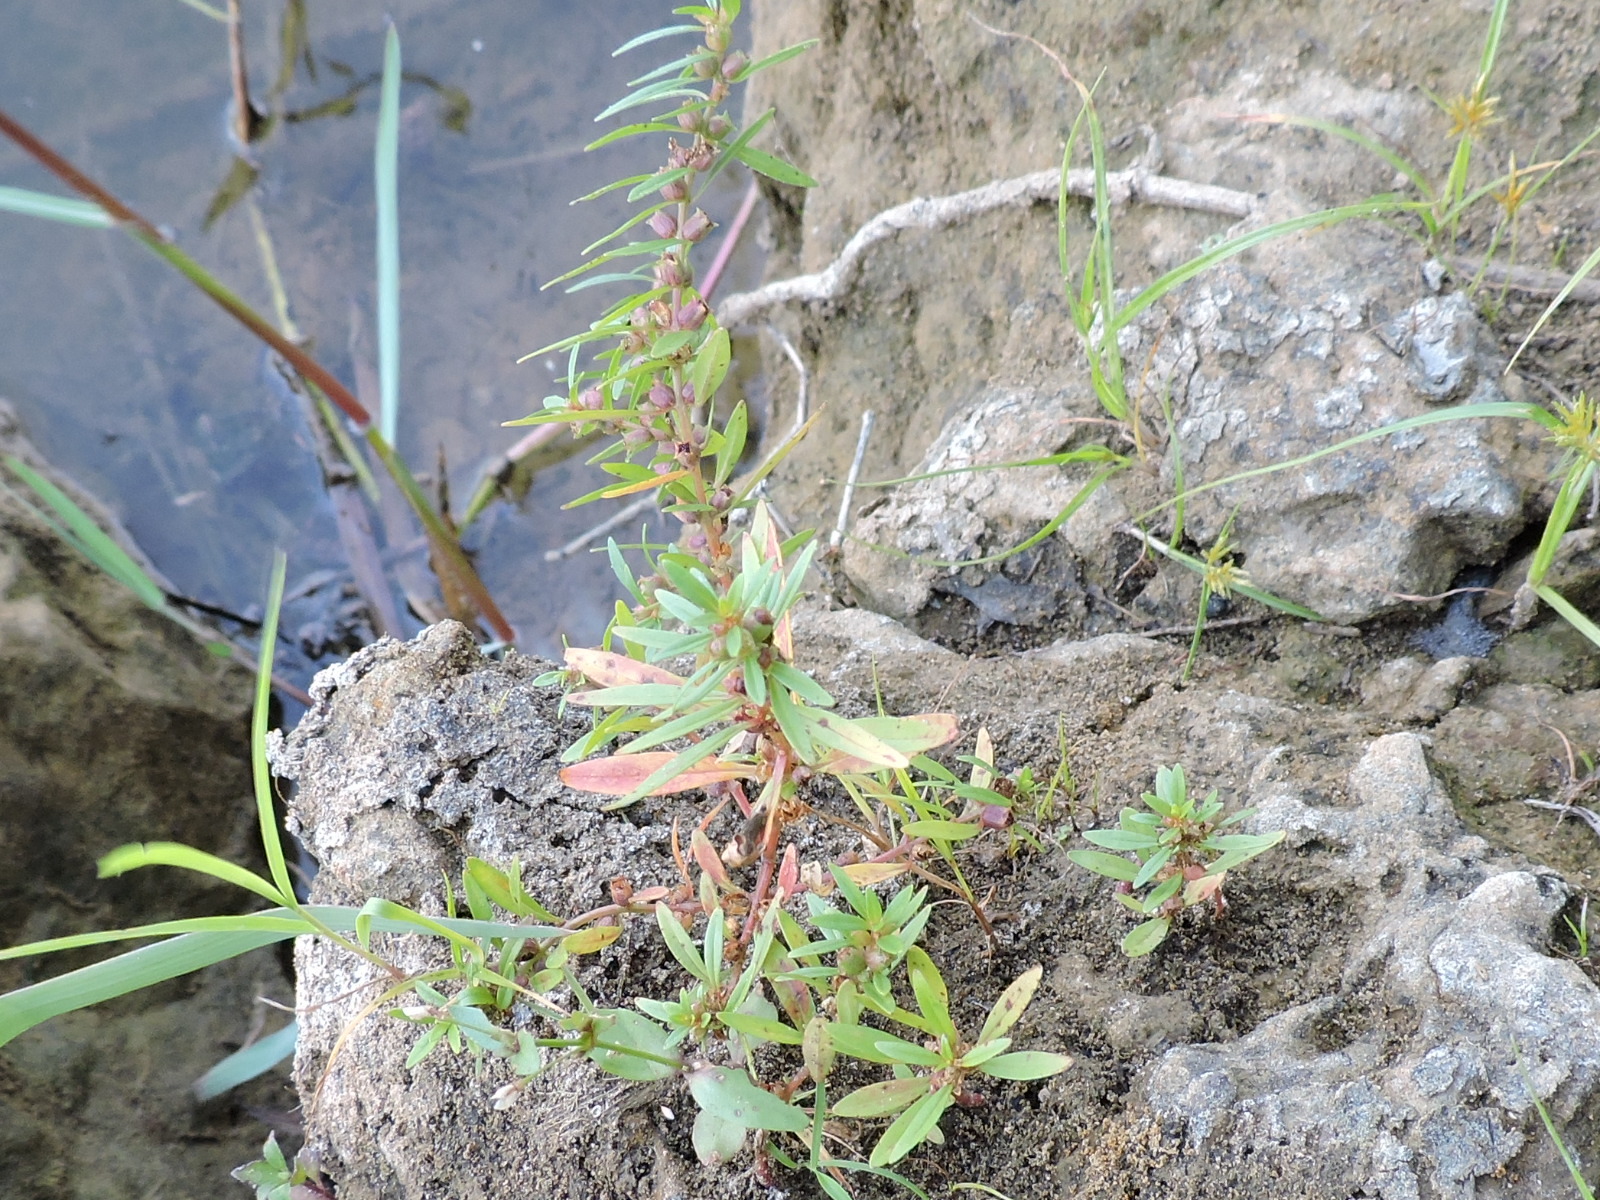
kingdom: Plantae
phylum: Tracheophyta
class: Magnoliopsida
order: Myrtales
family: Lythraceae
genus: Rotala
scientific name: Rotala ramosior
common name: Lowland rotala
